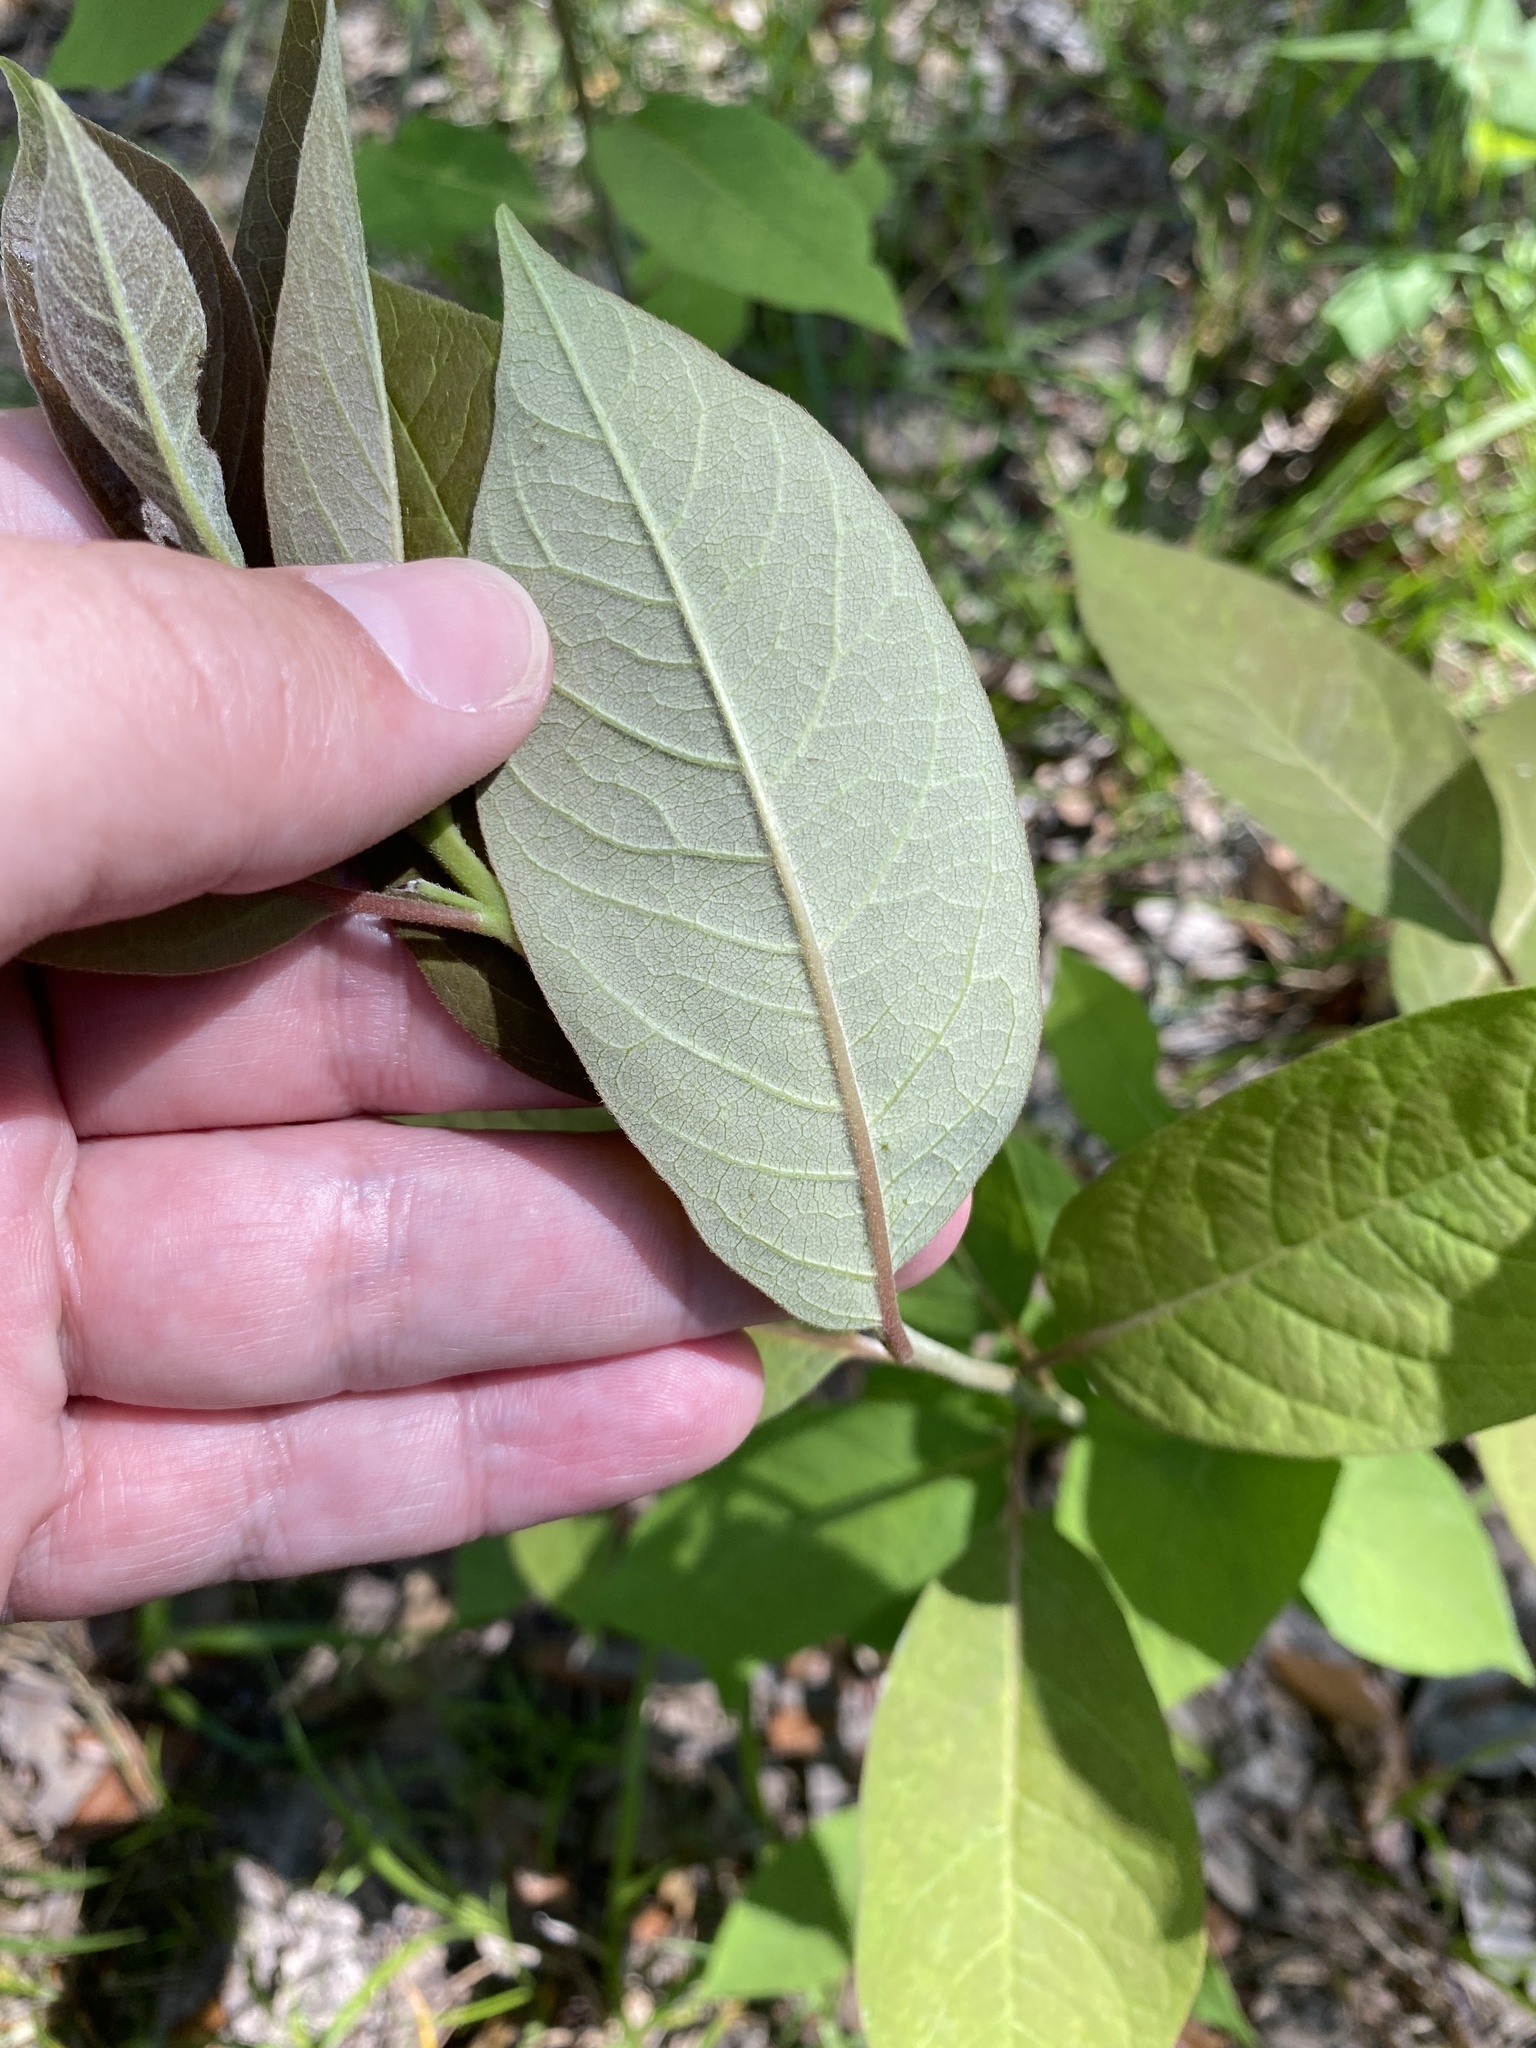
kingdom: Plantae
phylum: Tracheophyta
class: Magnoliopsida
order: Ericales
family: Ebenaceae
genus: Diospyros
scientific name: Diospyros virginiana
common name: Persimmon
